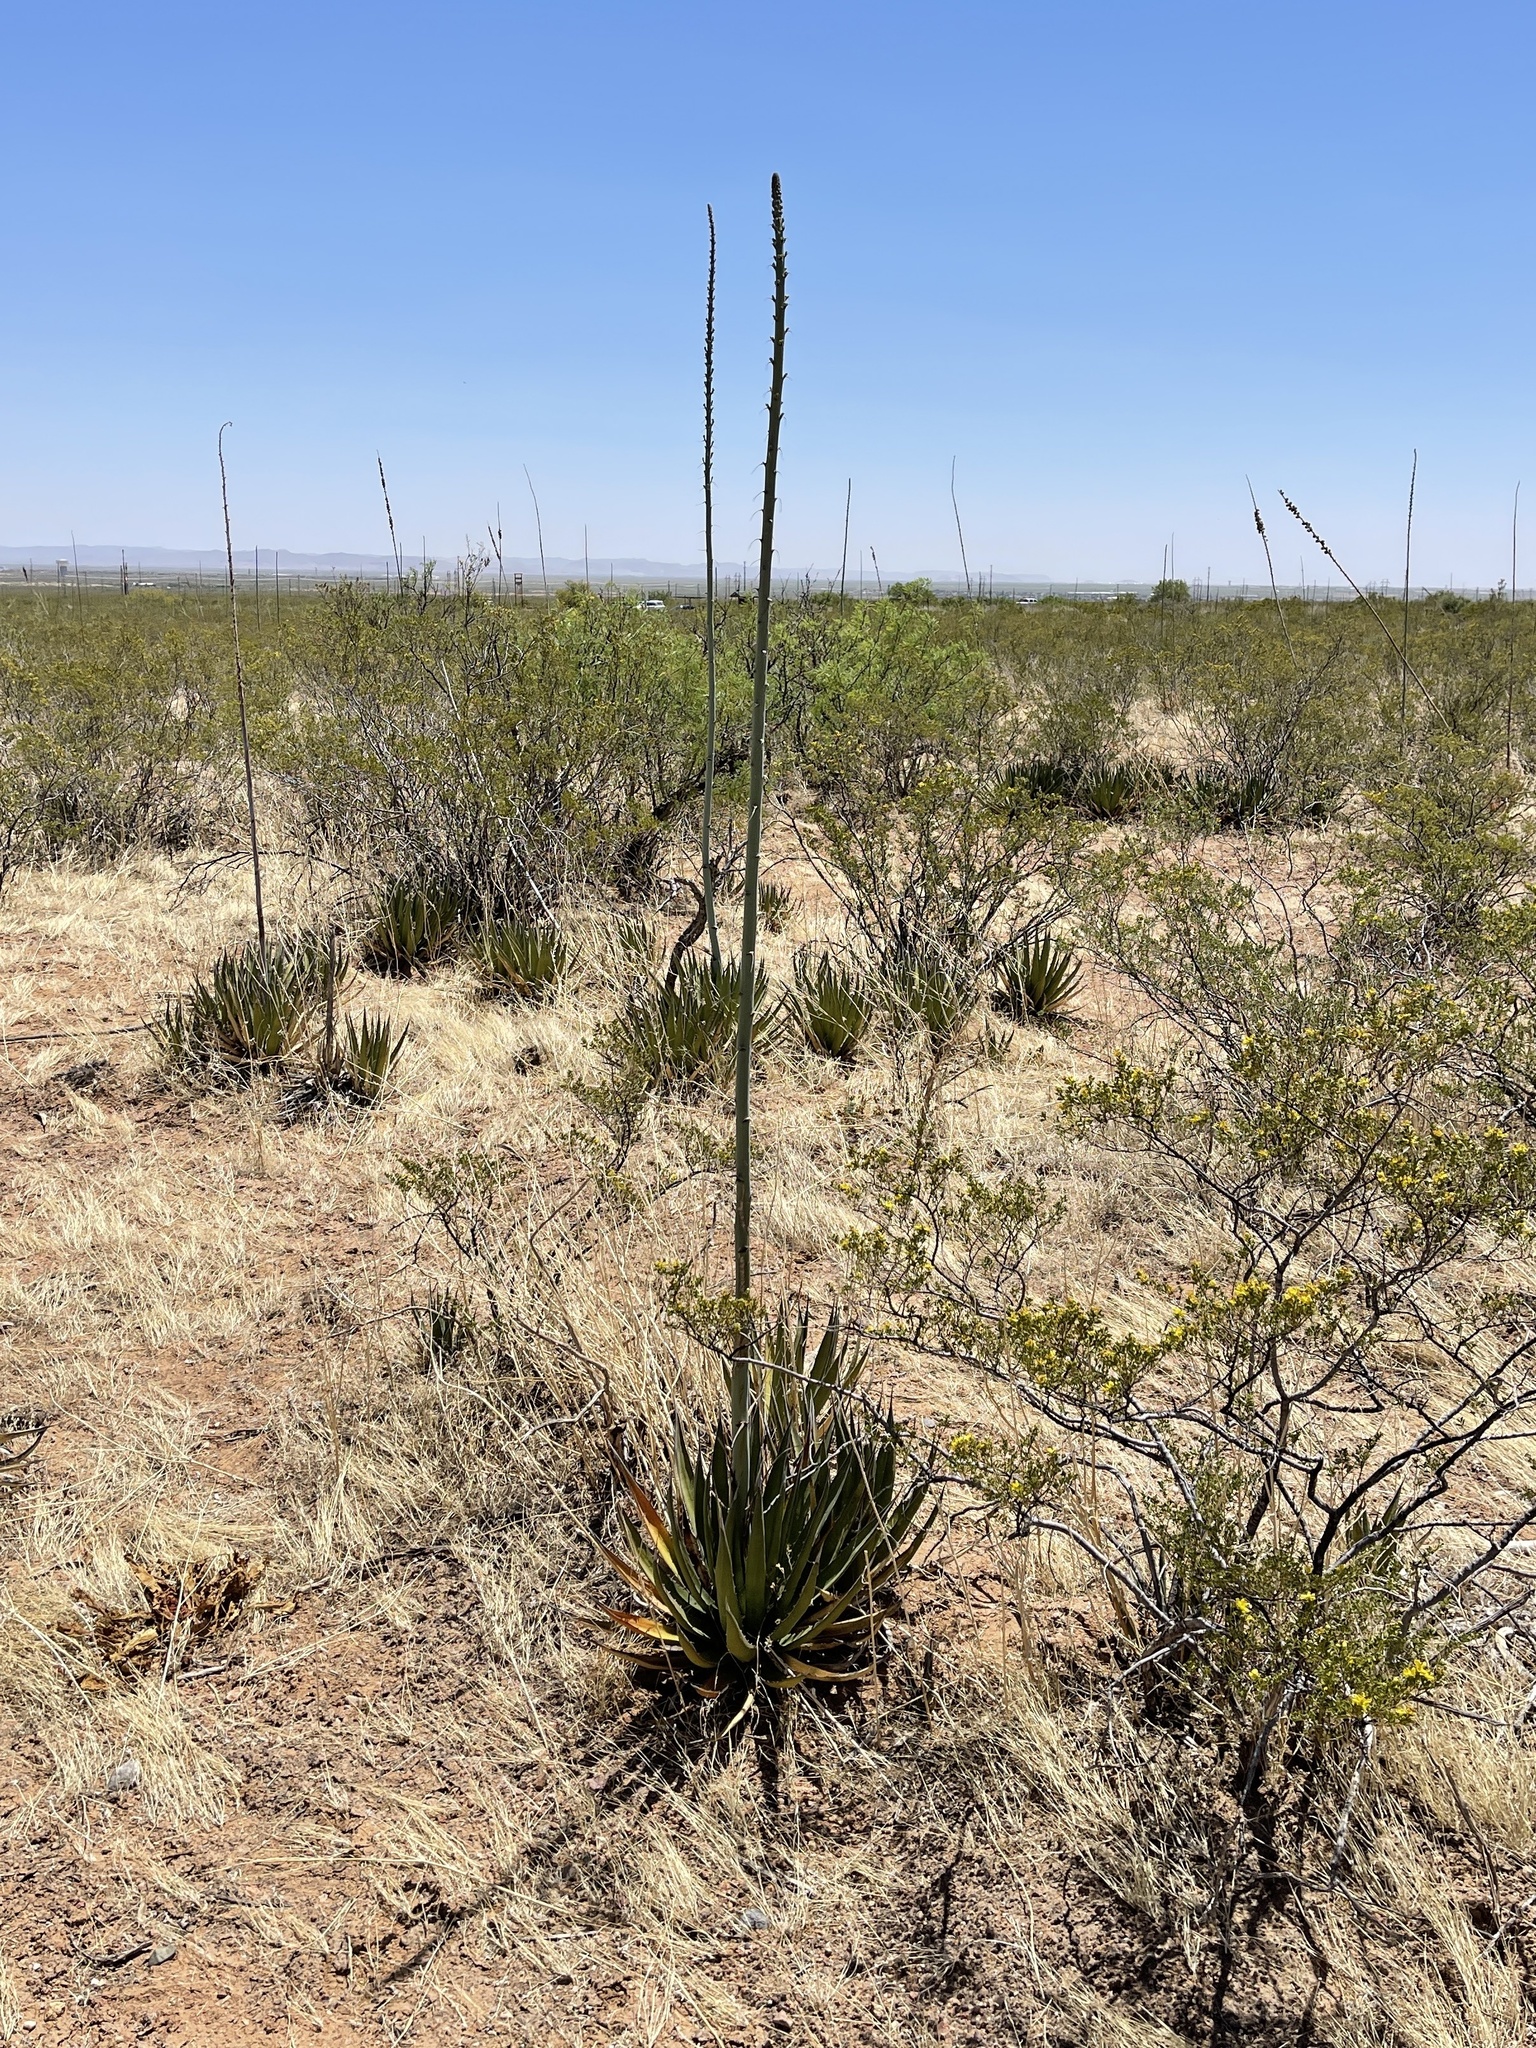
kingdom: Plantae
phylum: Tracheophyta
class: Liliopsida
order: Asparagales
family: Asparagaceae
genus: Agave
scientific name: Agave lechuguilla
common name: Lecheguilla agave
